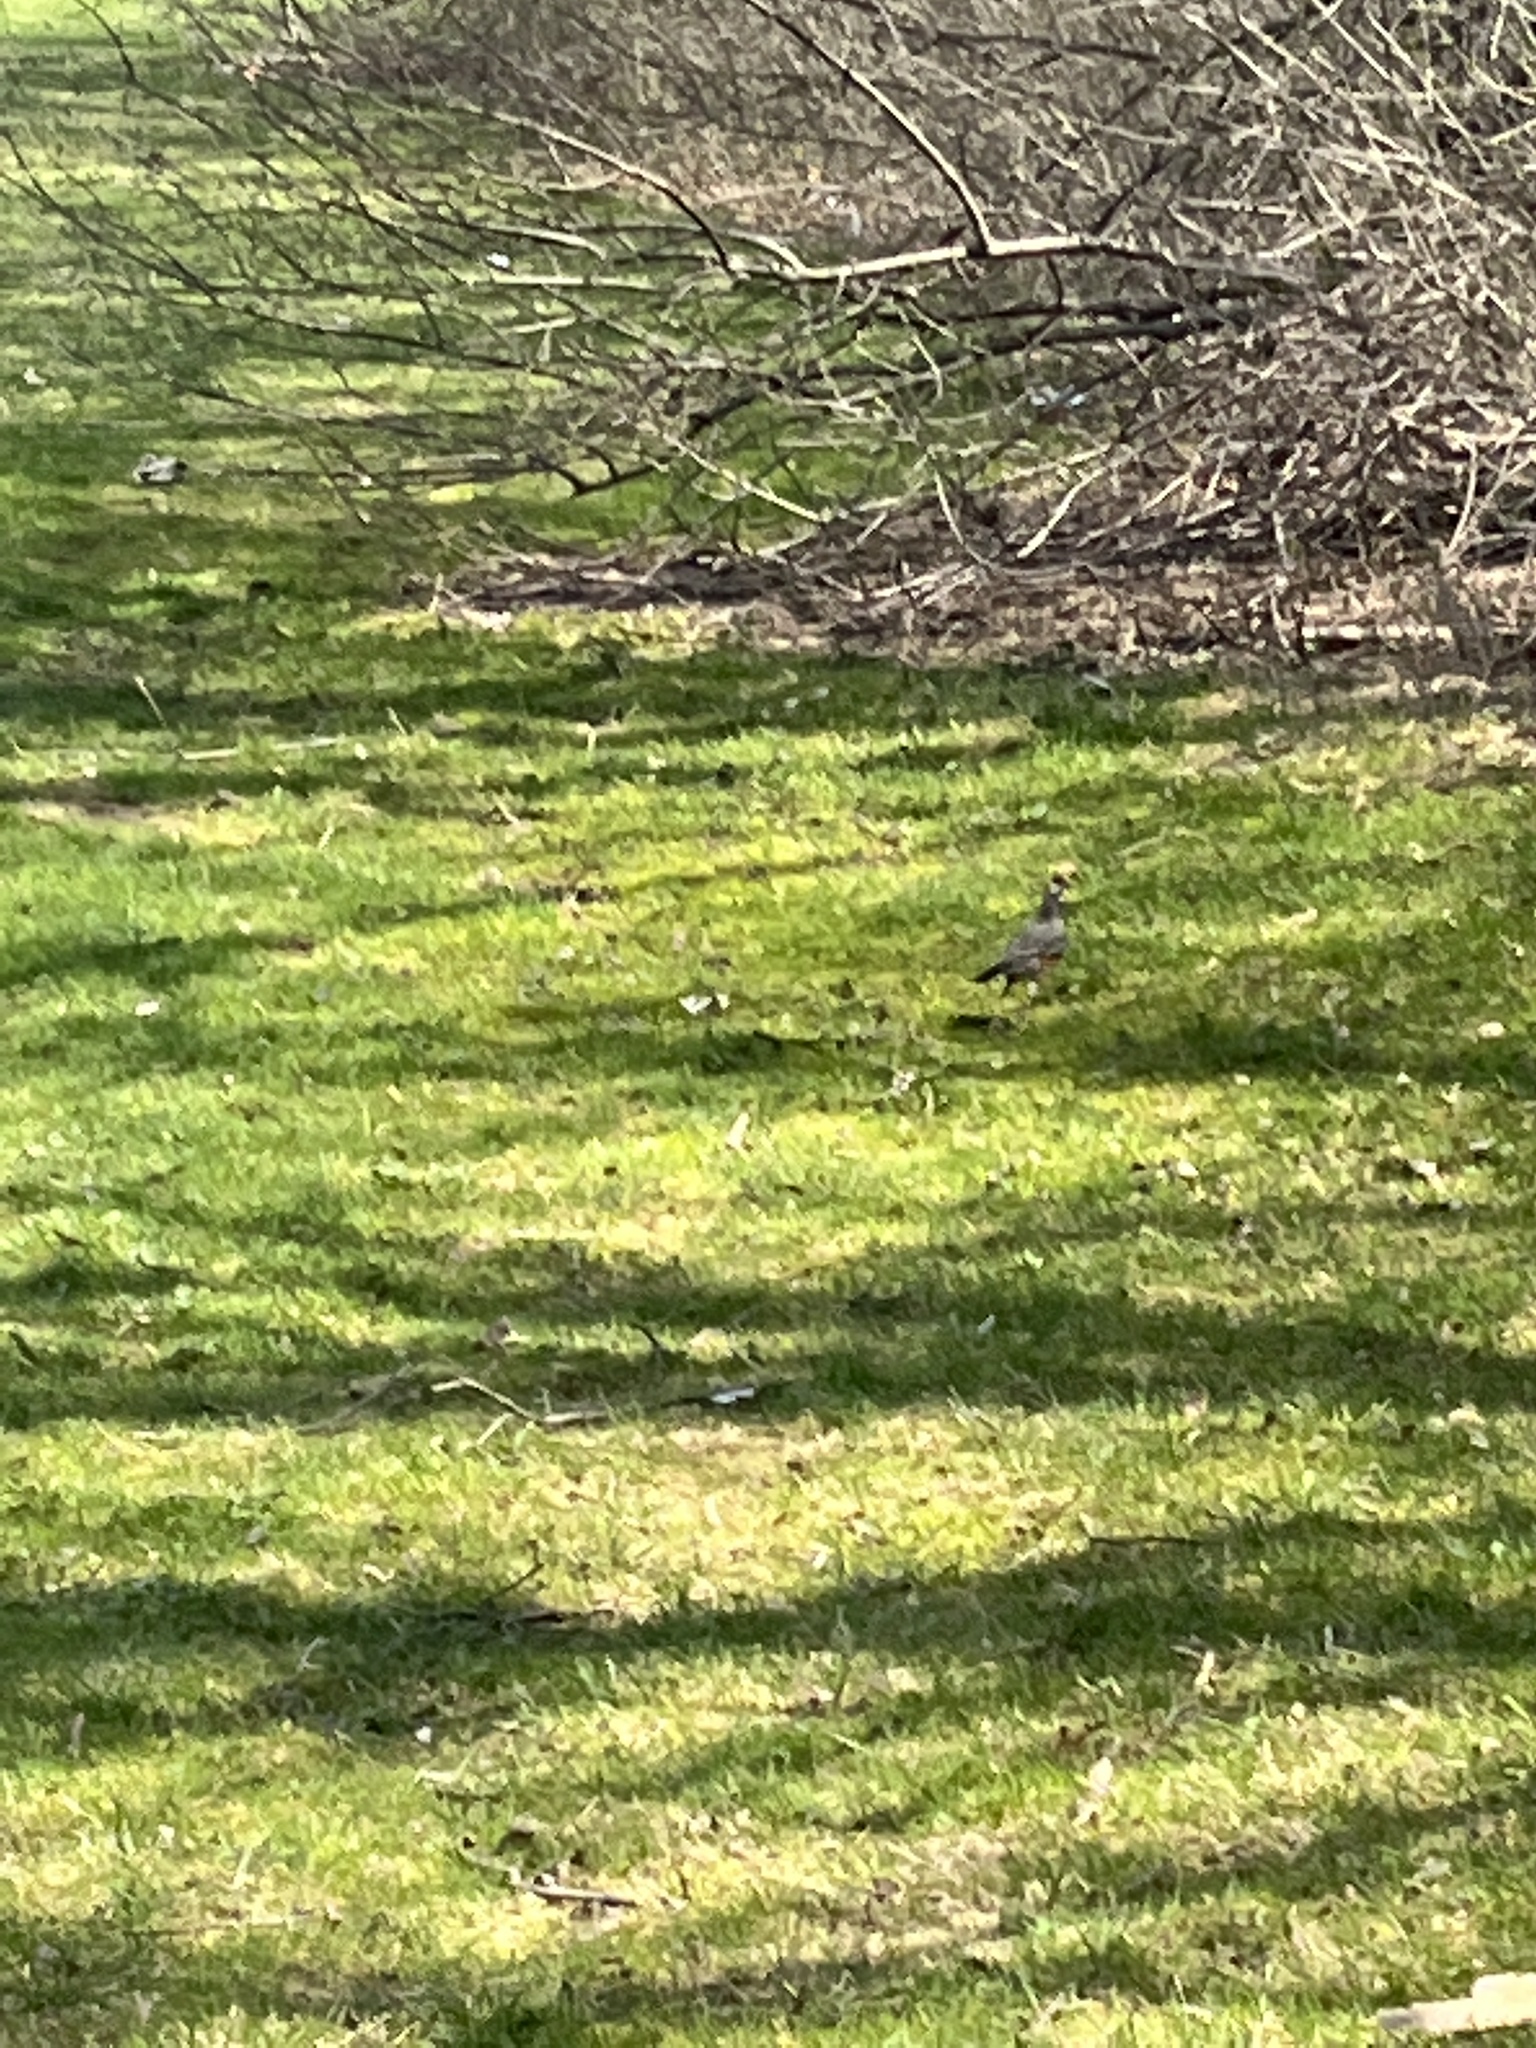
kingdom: Animalia
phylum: Chordata
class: Aves
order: Passeriformes
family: Turdidae
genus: Turdus
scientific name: Turdus migratorius
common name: American robin
